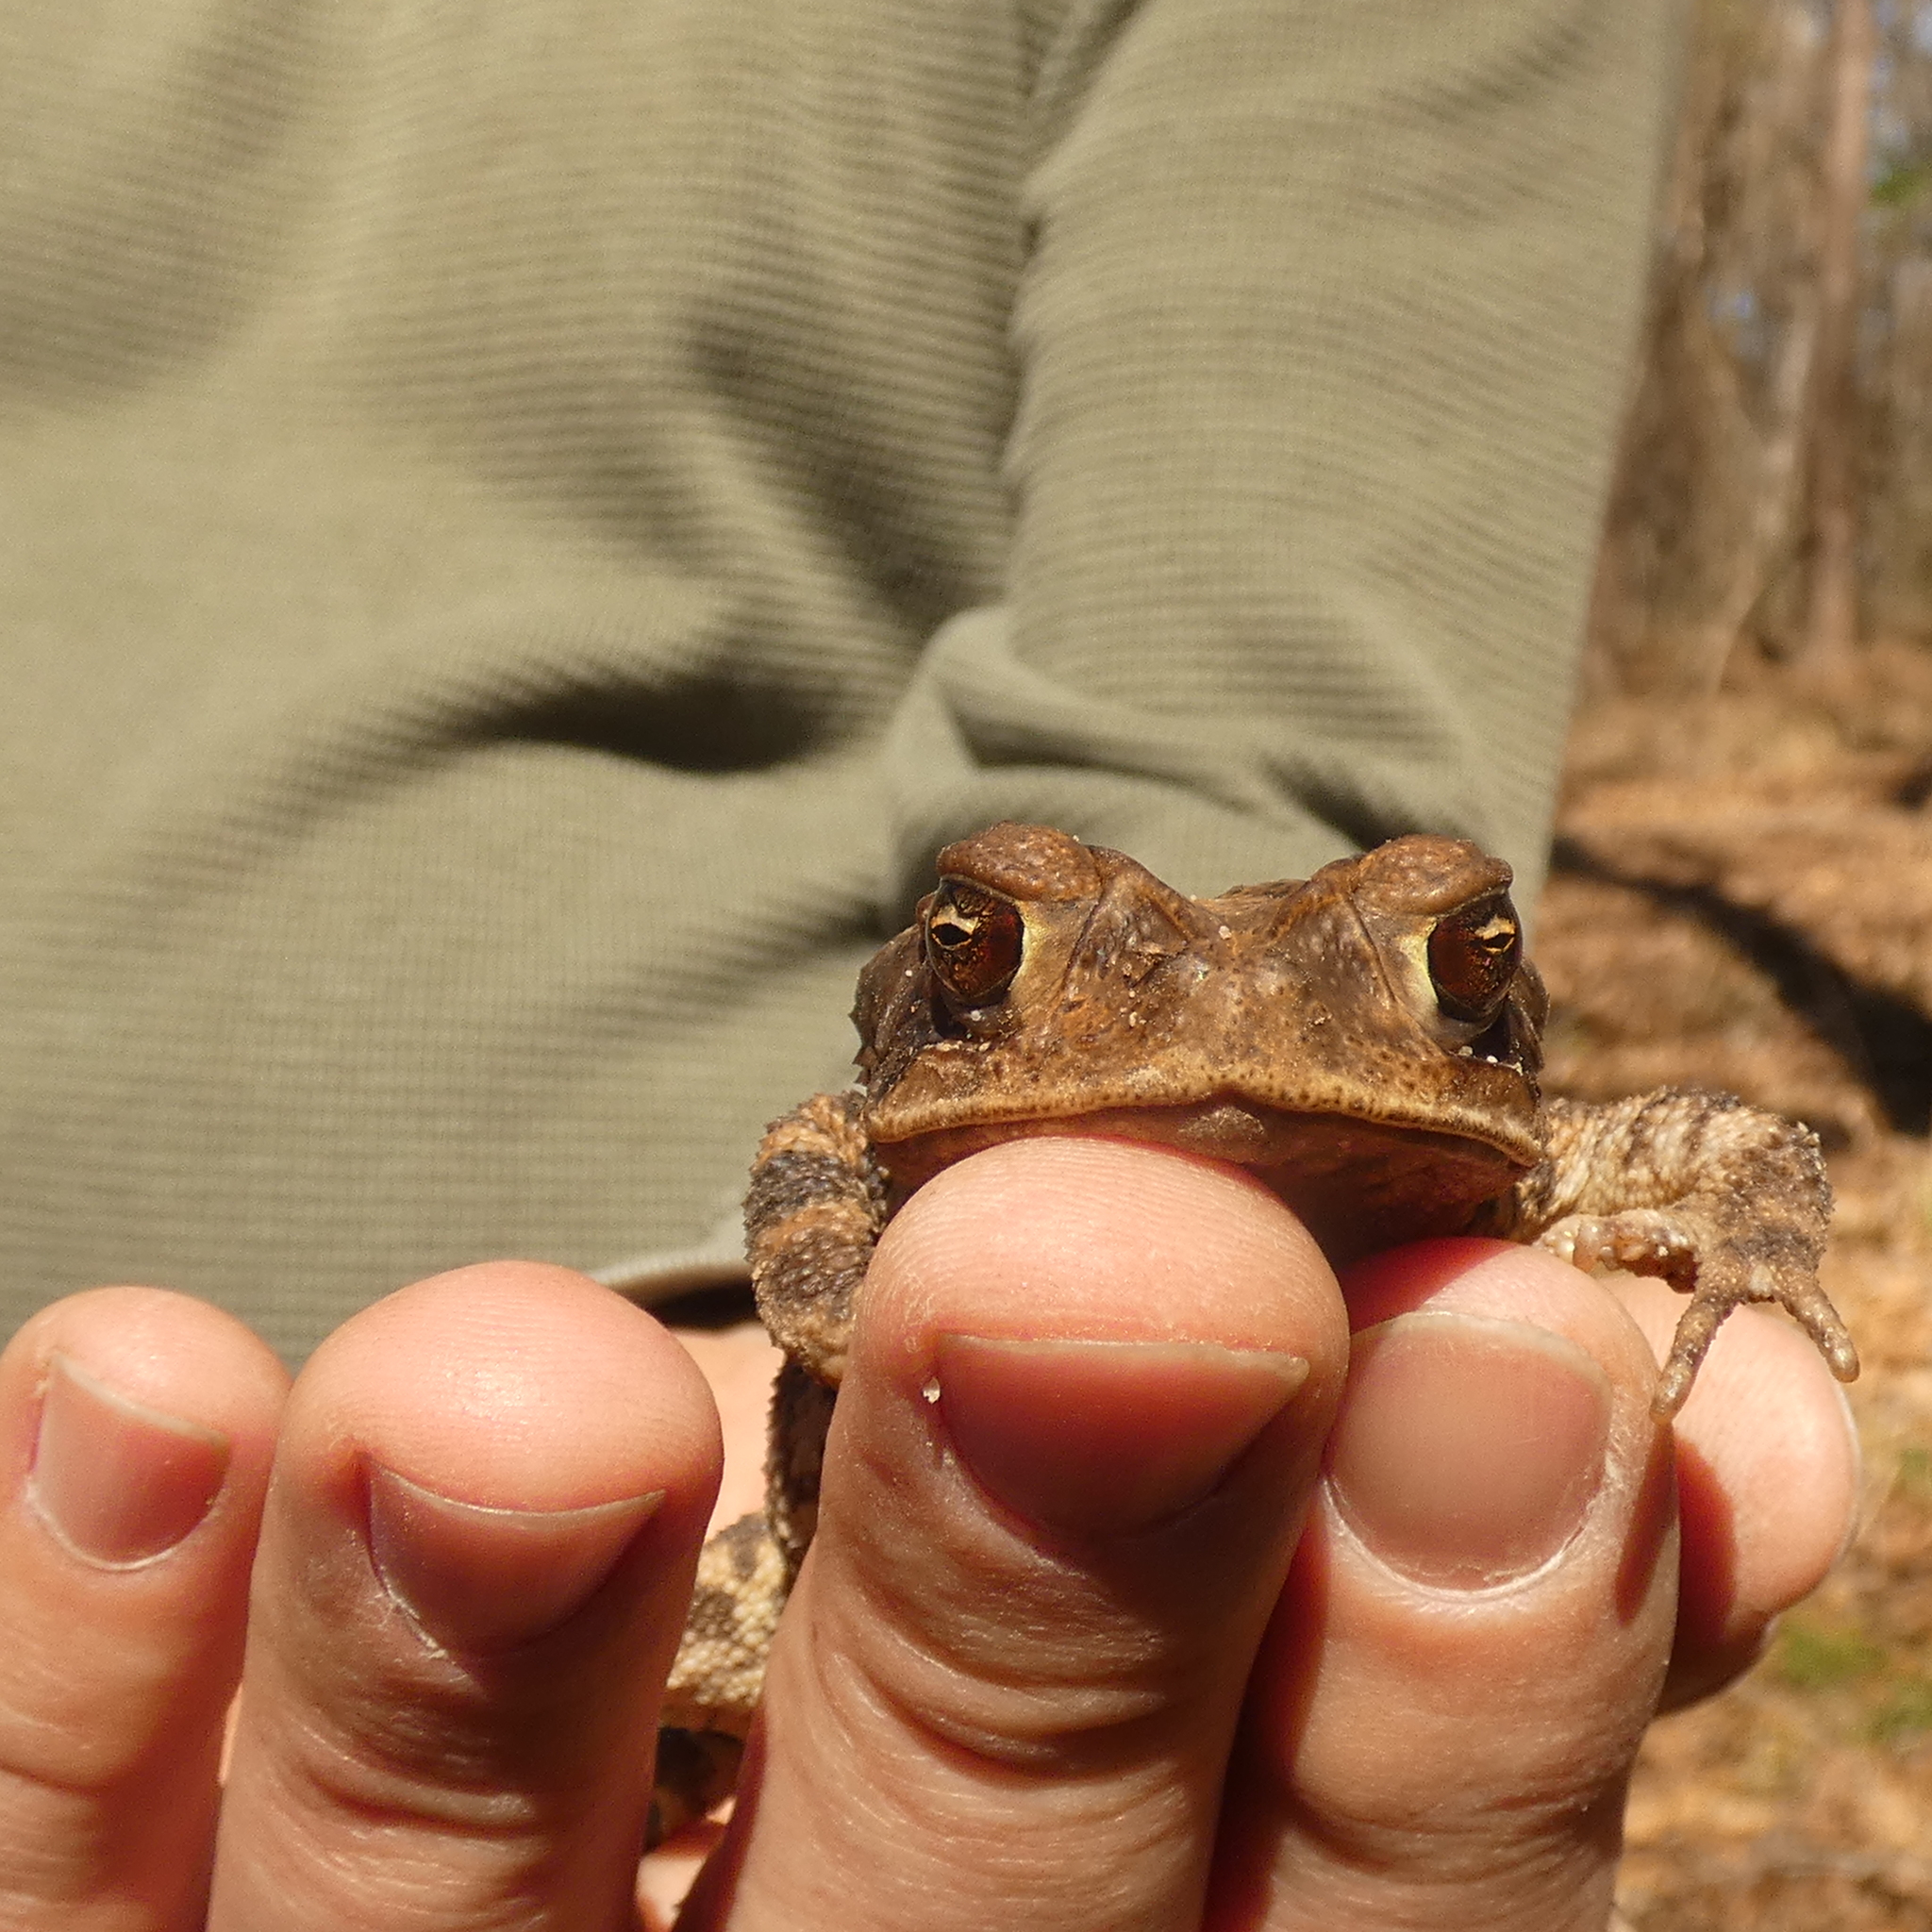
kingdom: Animalia
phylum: Chordata
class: Amphibia
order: Anura
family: Bufonidae
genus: Incilius
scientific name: Incilius nebulifer
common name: Gulf coast toad
